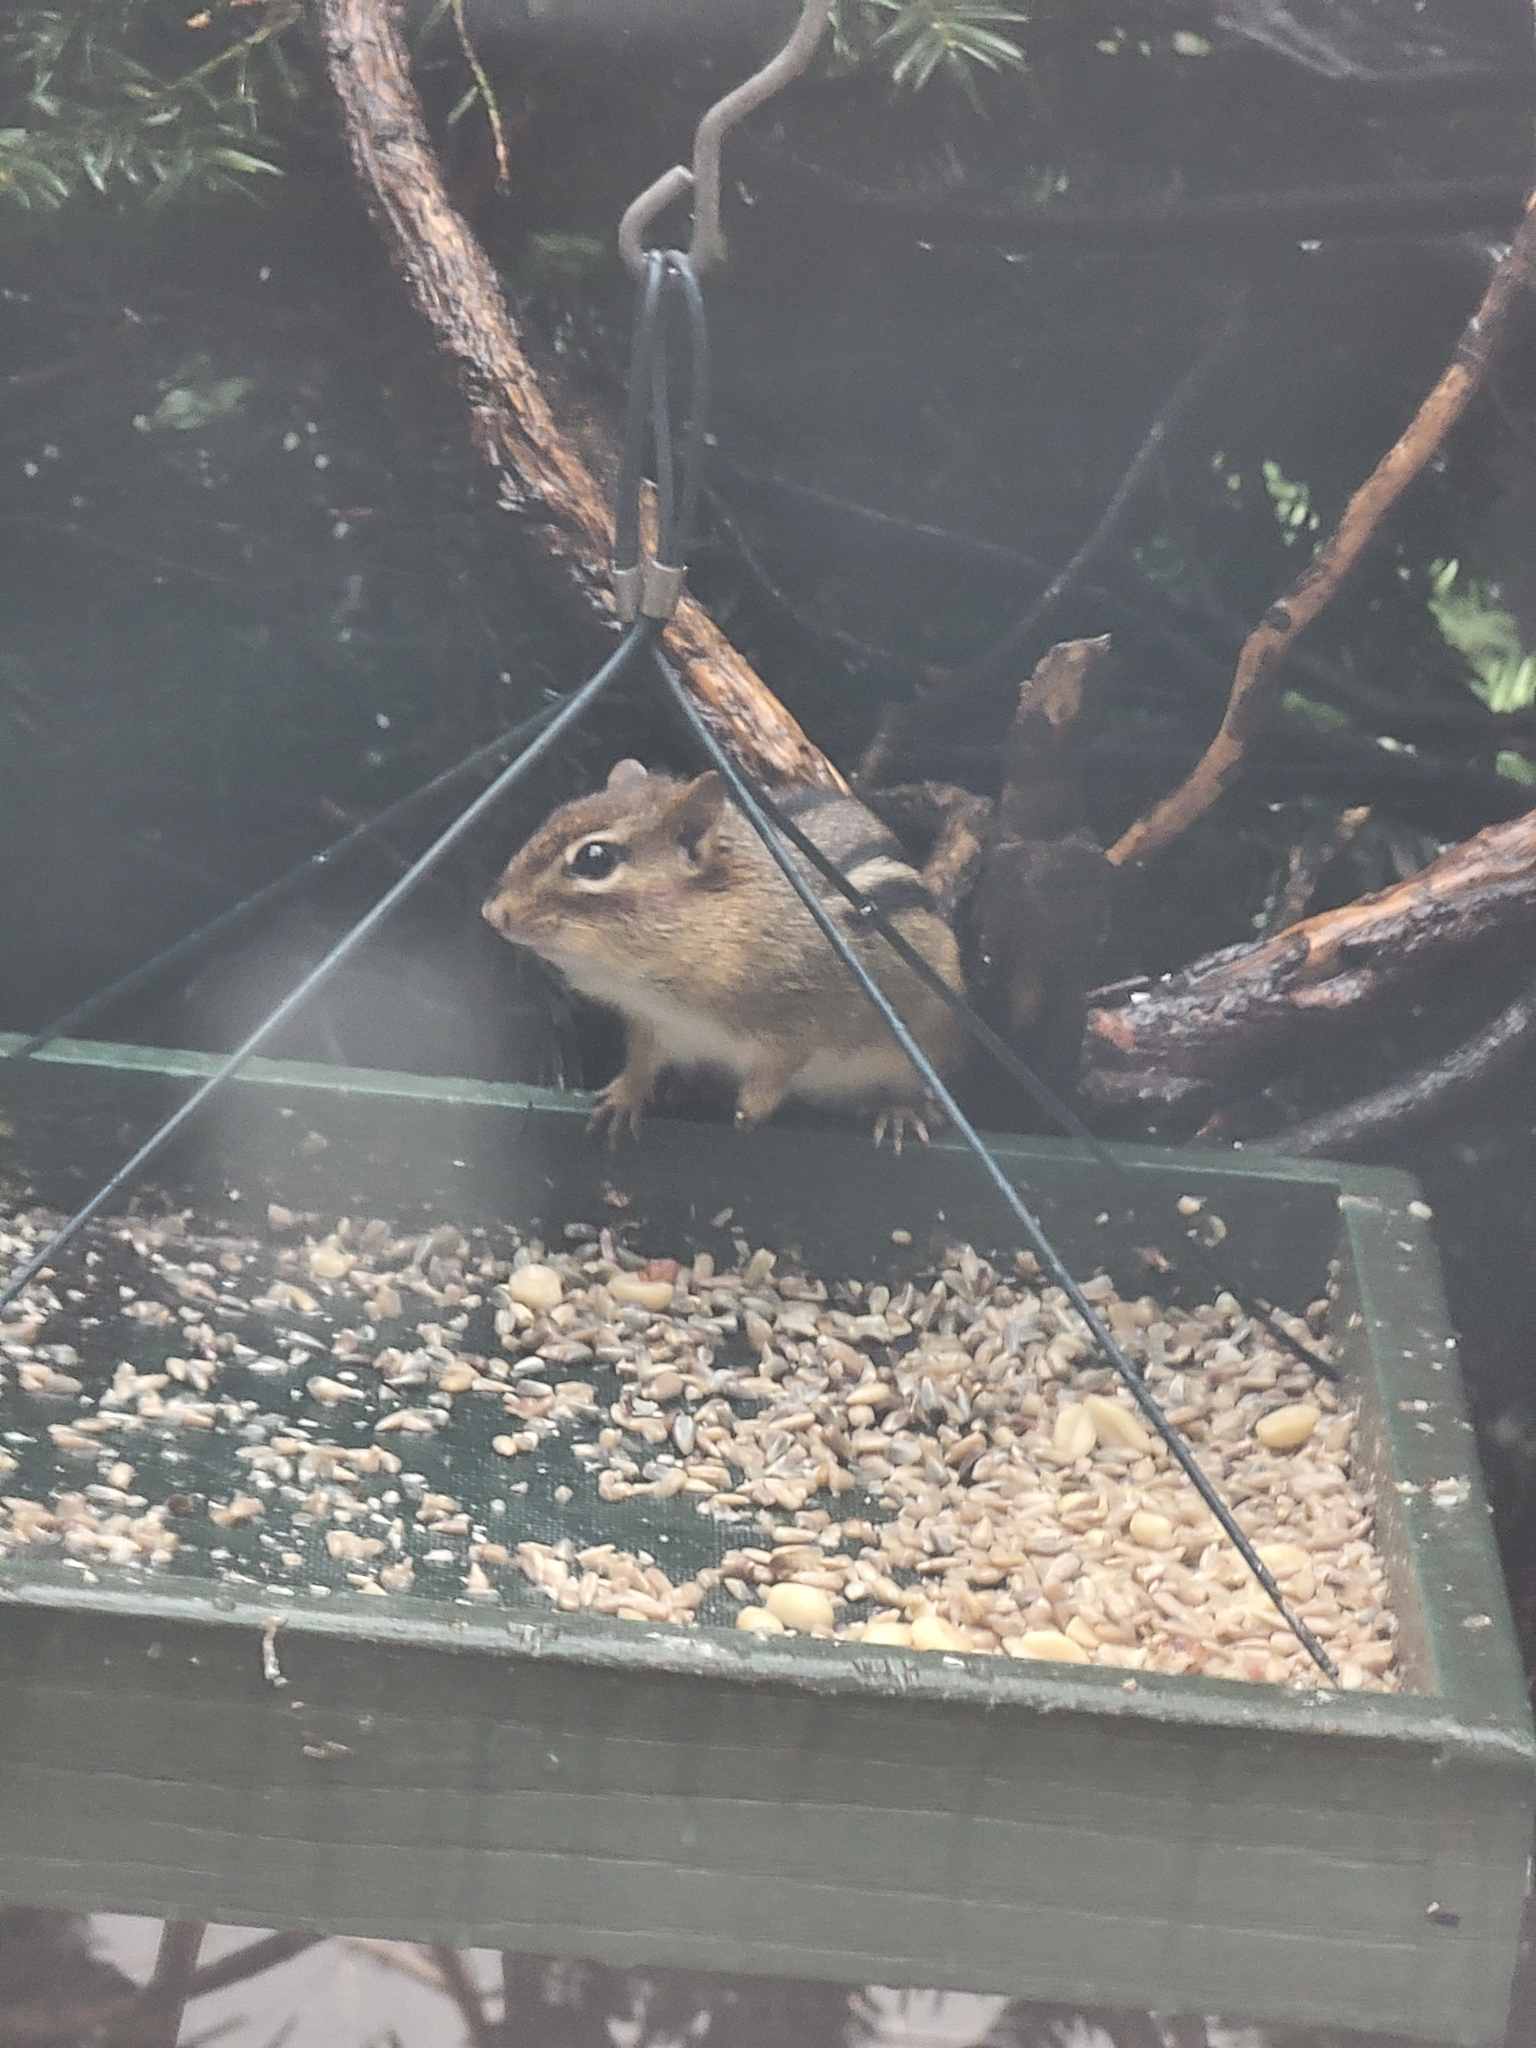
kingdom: Animalia
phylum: Chordata
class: Mammalia
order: Rodentia
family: Sciuridae
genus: Tamias
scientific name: Tamias striatus
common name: Eastern chipmunk
